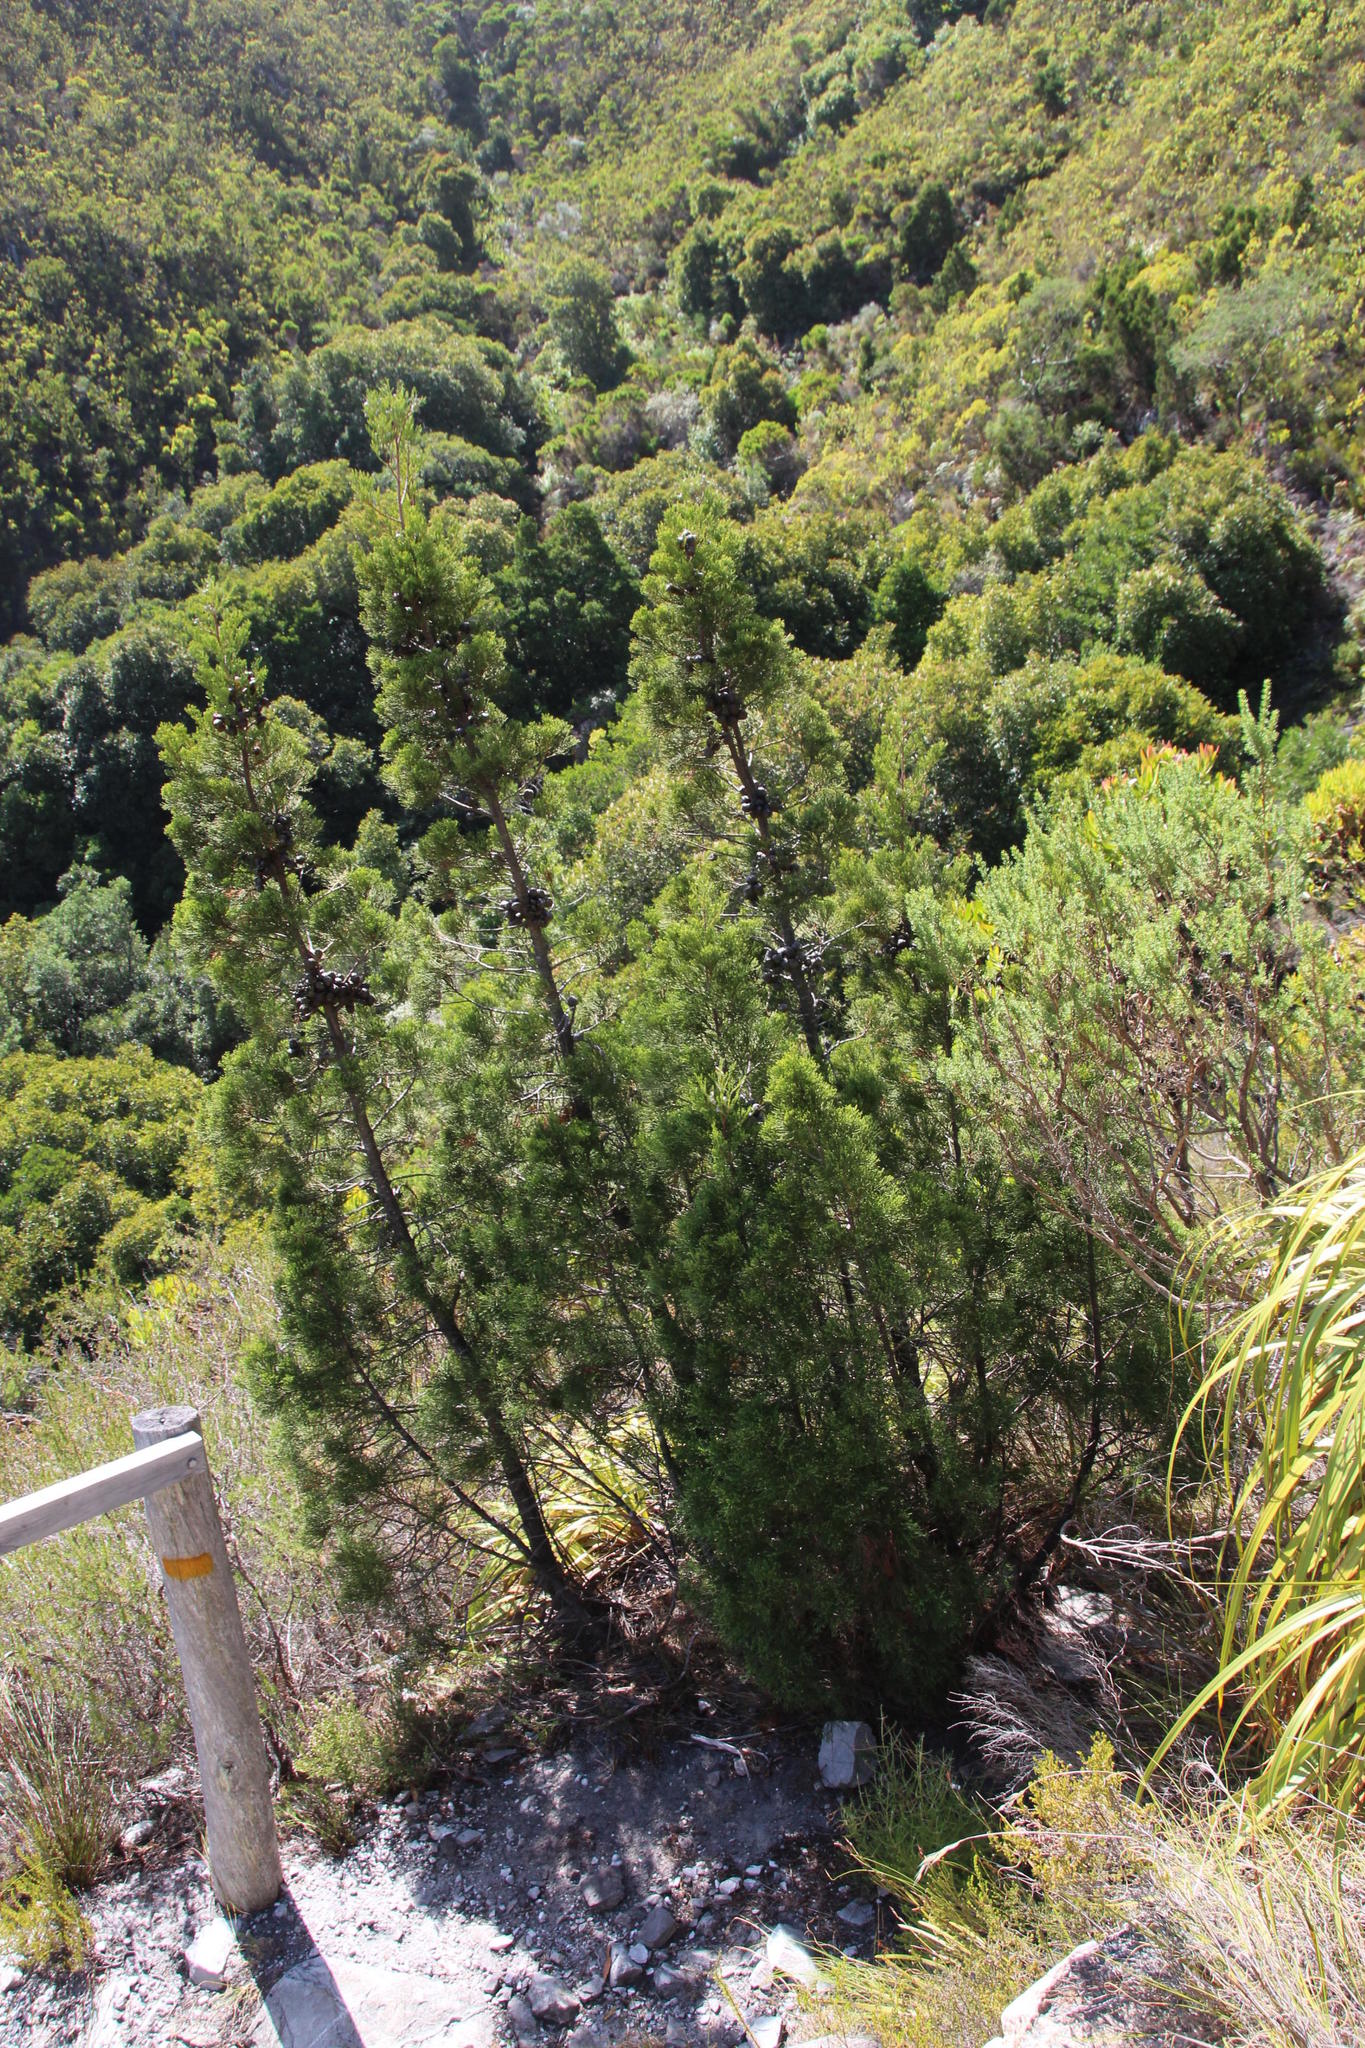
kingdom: Plantae
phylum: Tracheophyta
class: Pinopsida
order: Pinales
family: Cupressaceae
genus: Widdringtonia
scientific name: Widdringtonia nodiflora
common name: Cape cypress
